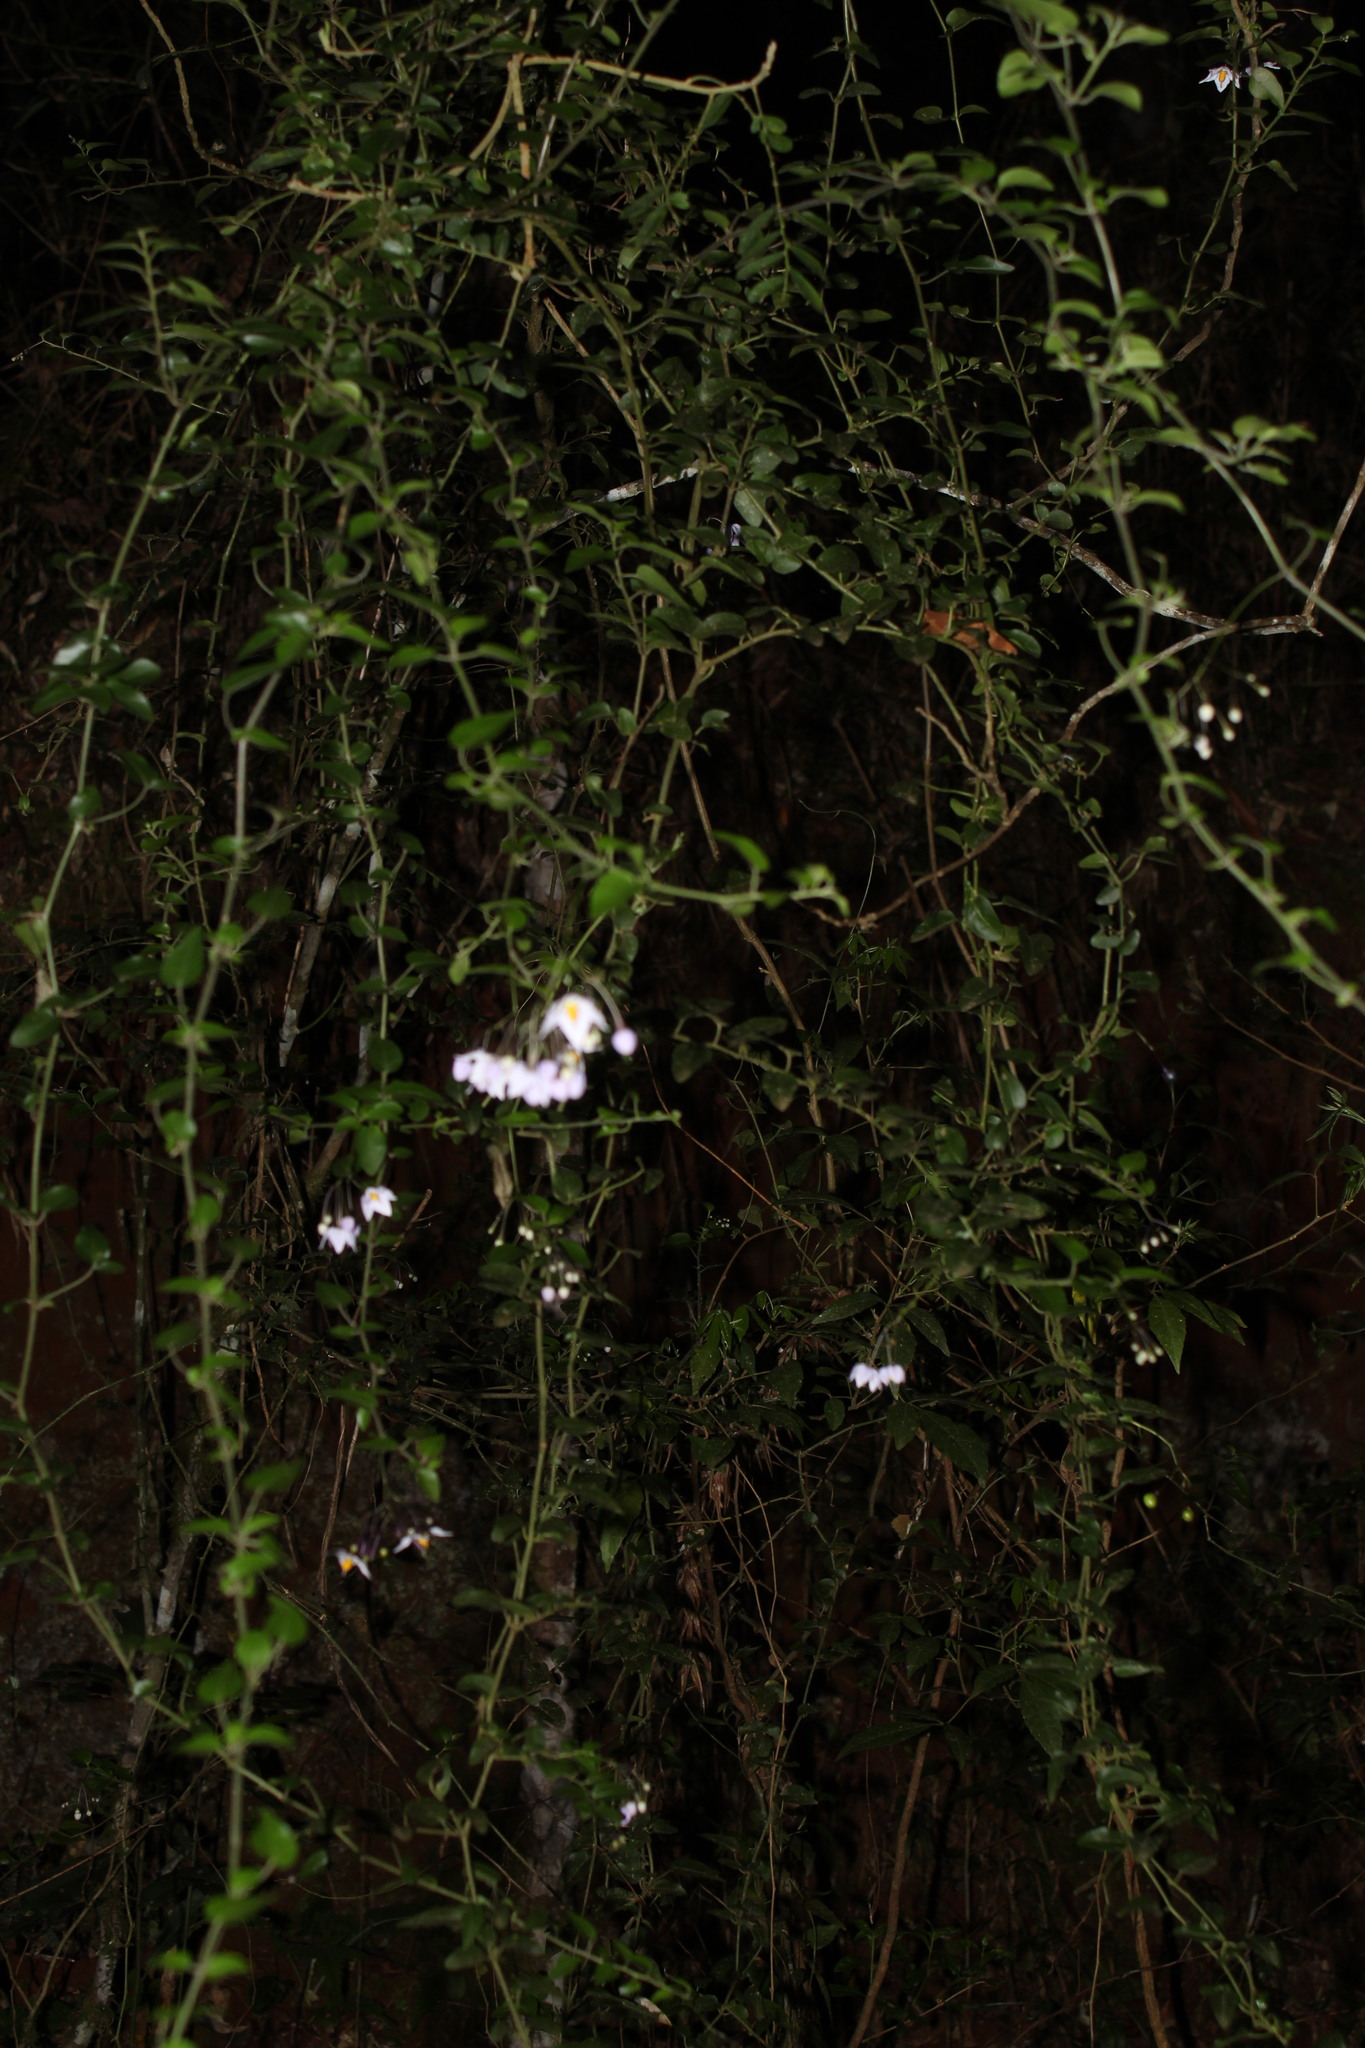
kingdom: Plantae
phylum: Tracheophyta
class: Magnoliopsida
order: Solanales
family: Solanaceae
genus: Solanum
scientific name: Solanum laxum
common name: Nightshade
